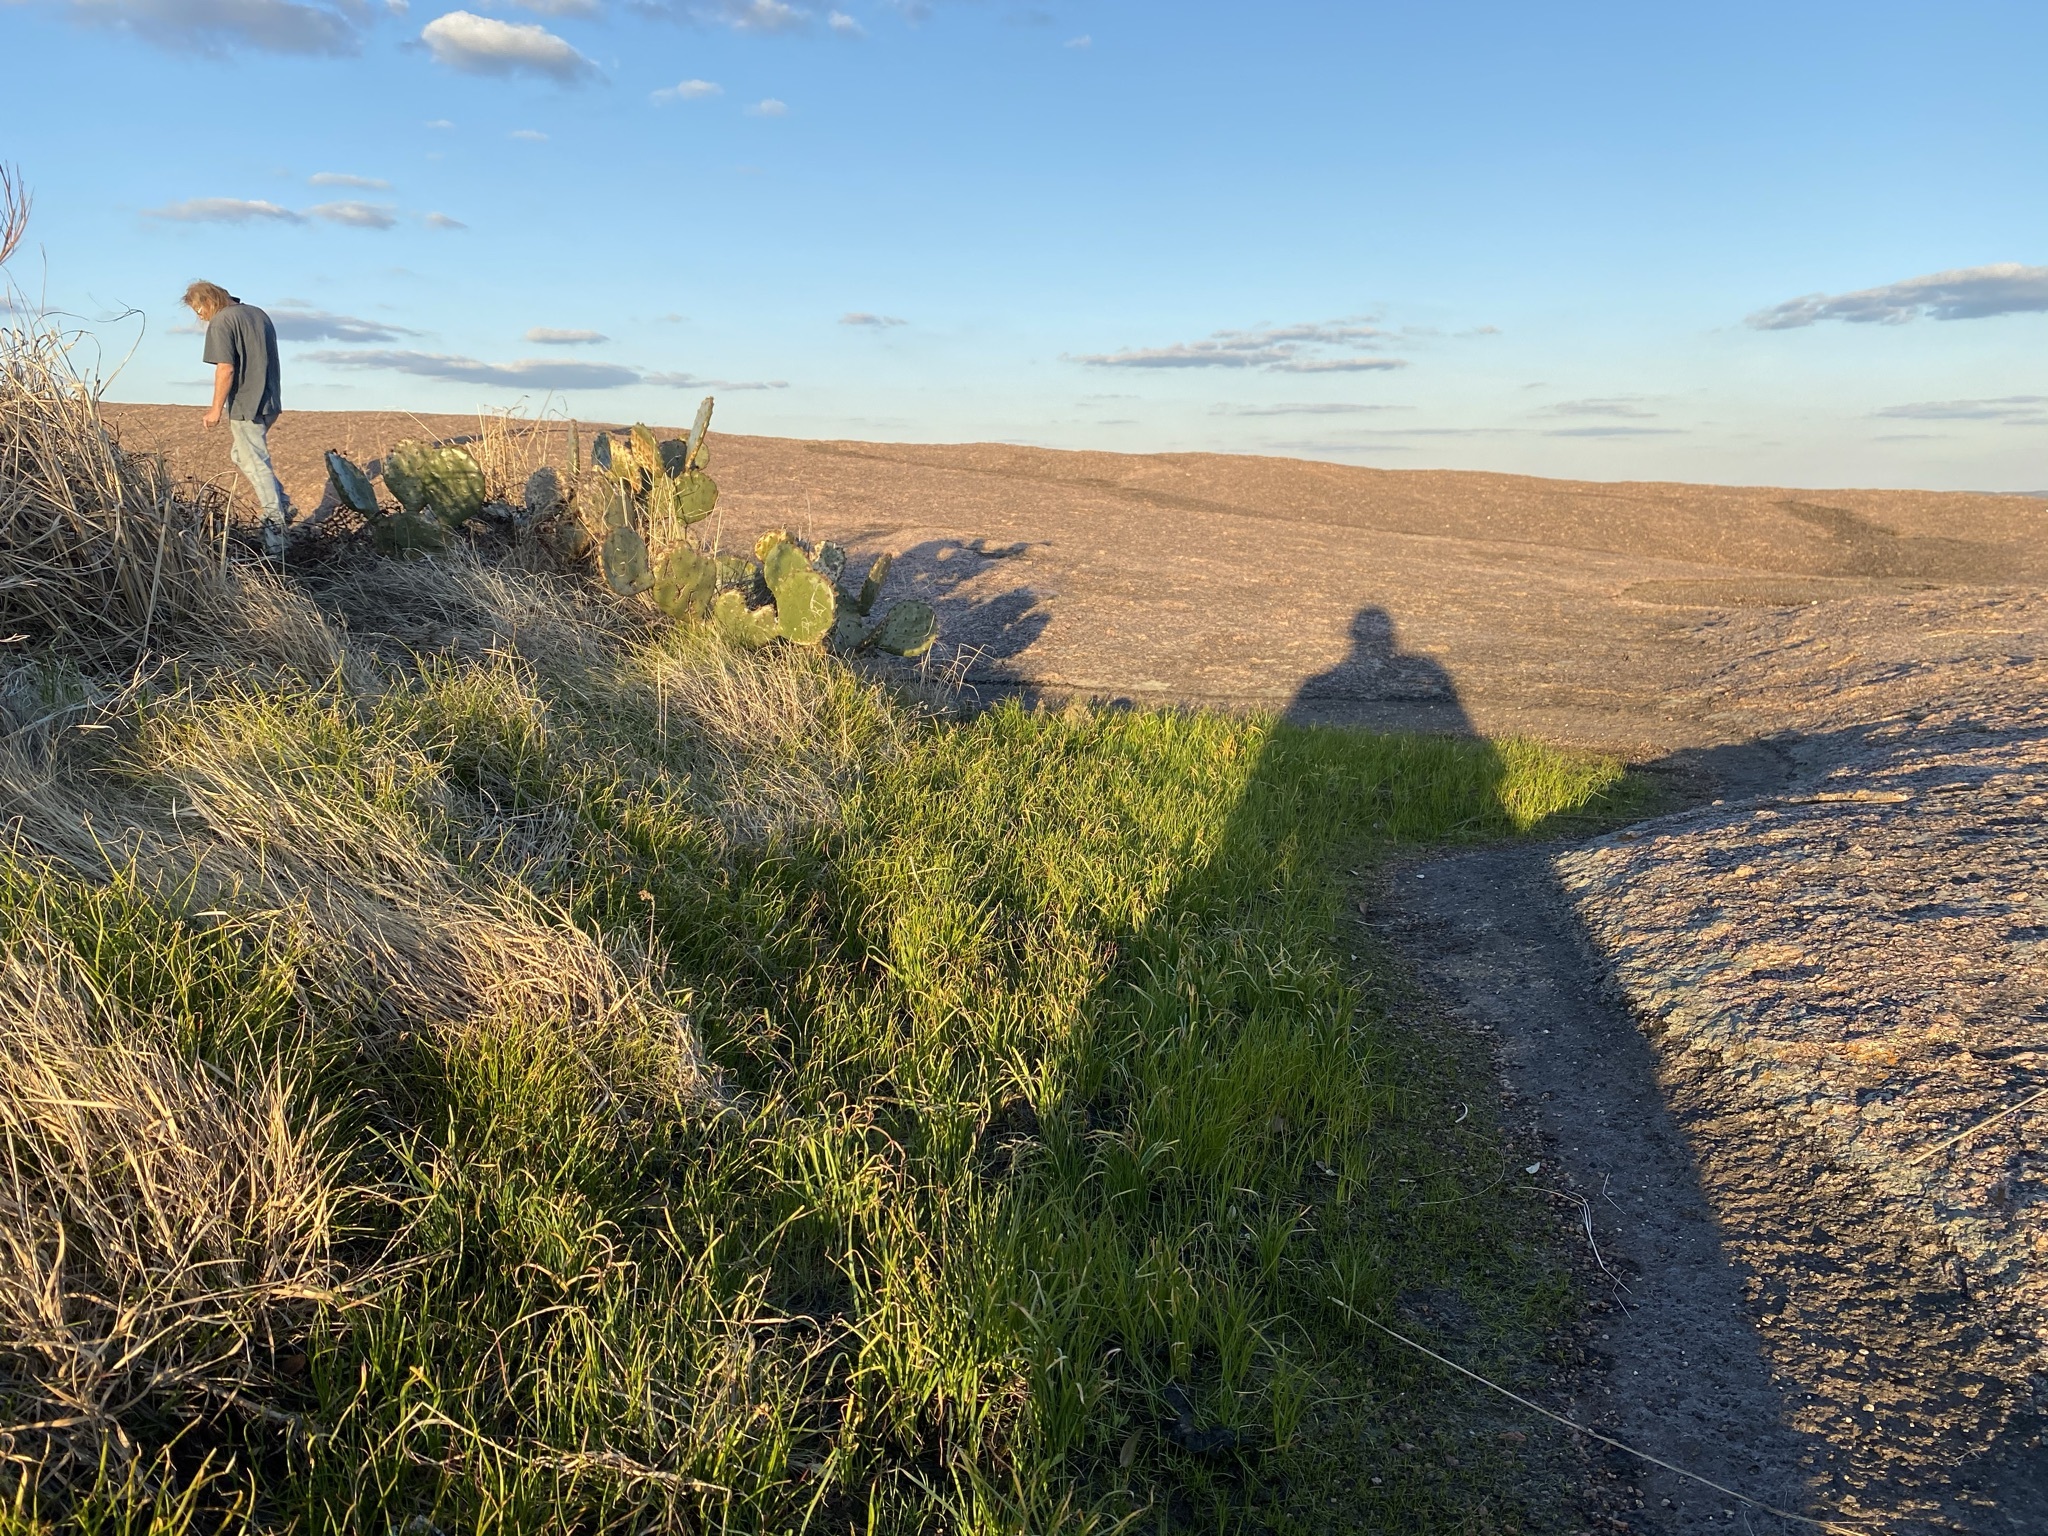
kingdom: Plantae
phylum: Tracheophyta
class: Lycopodiopsida
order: Isoetales
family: Isoetaceae
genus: Isoetes
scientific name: Isoetes lithophila
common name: Rock quillwort
